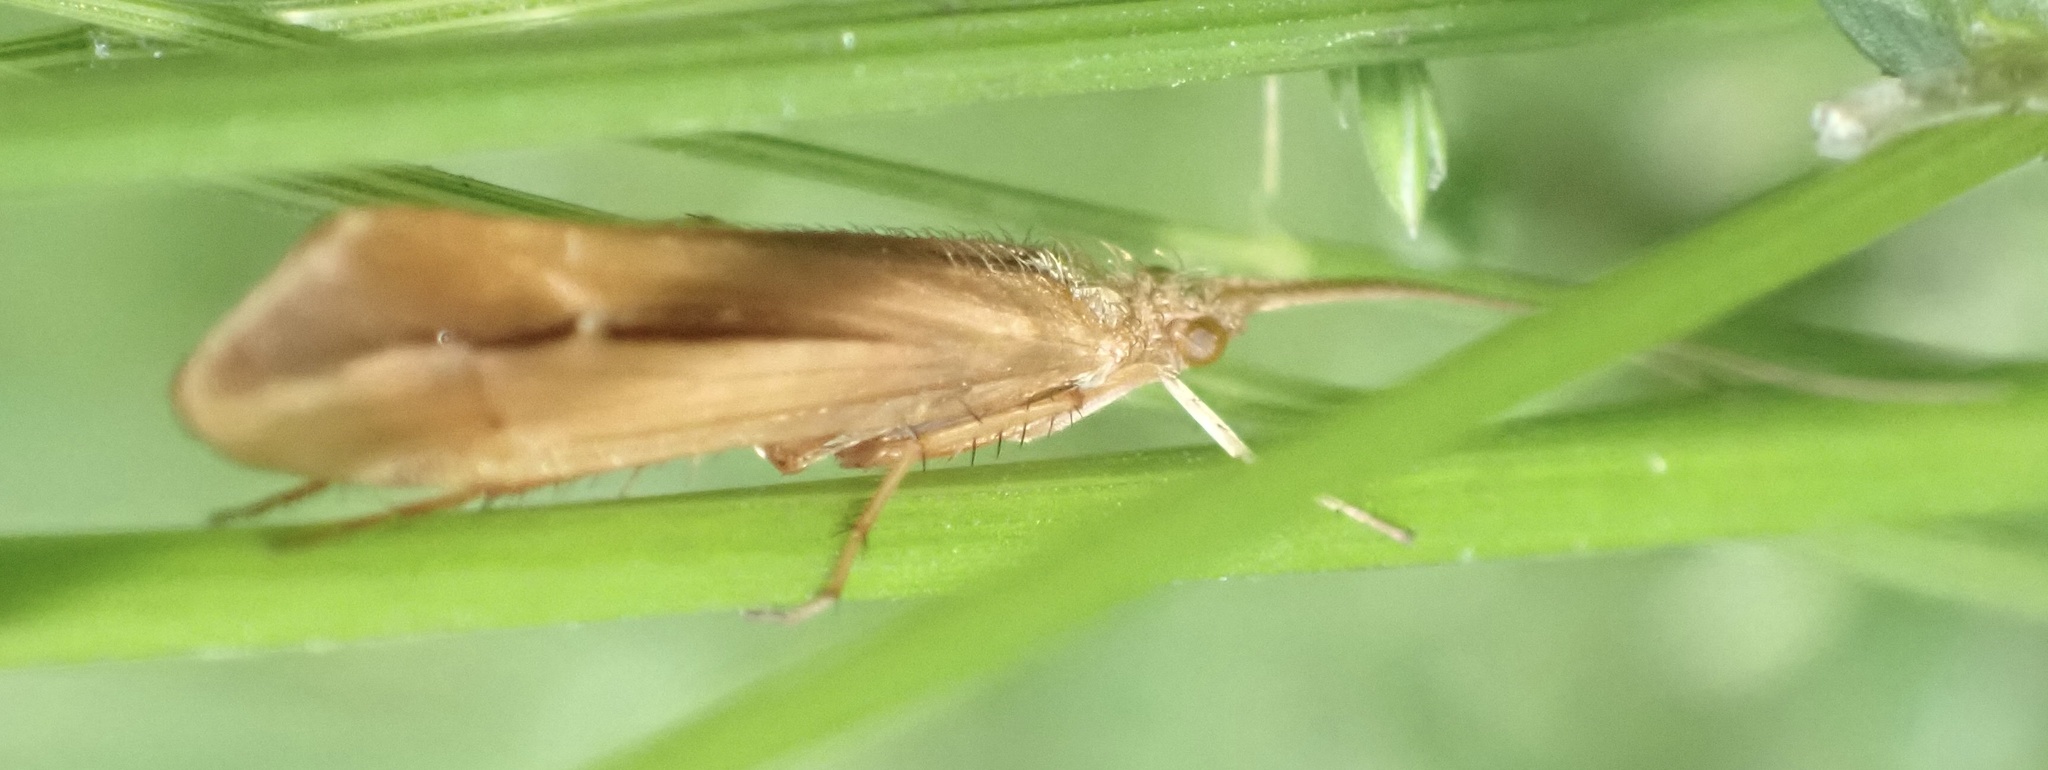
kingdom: Animalia
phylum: Arthropoda
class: Insecta
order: Trichoptera
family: Limnephilidae
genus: Limnephilus
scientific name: Limnephilus vittatus
